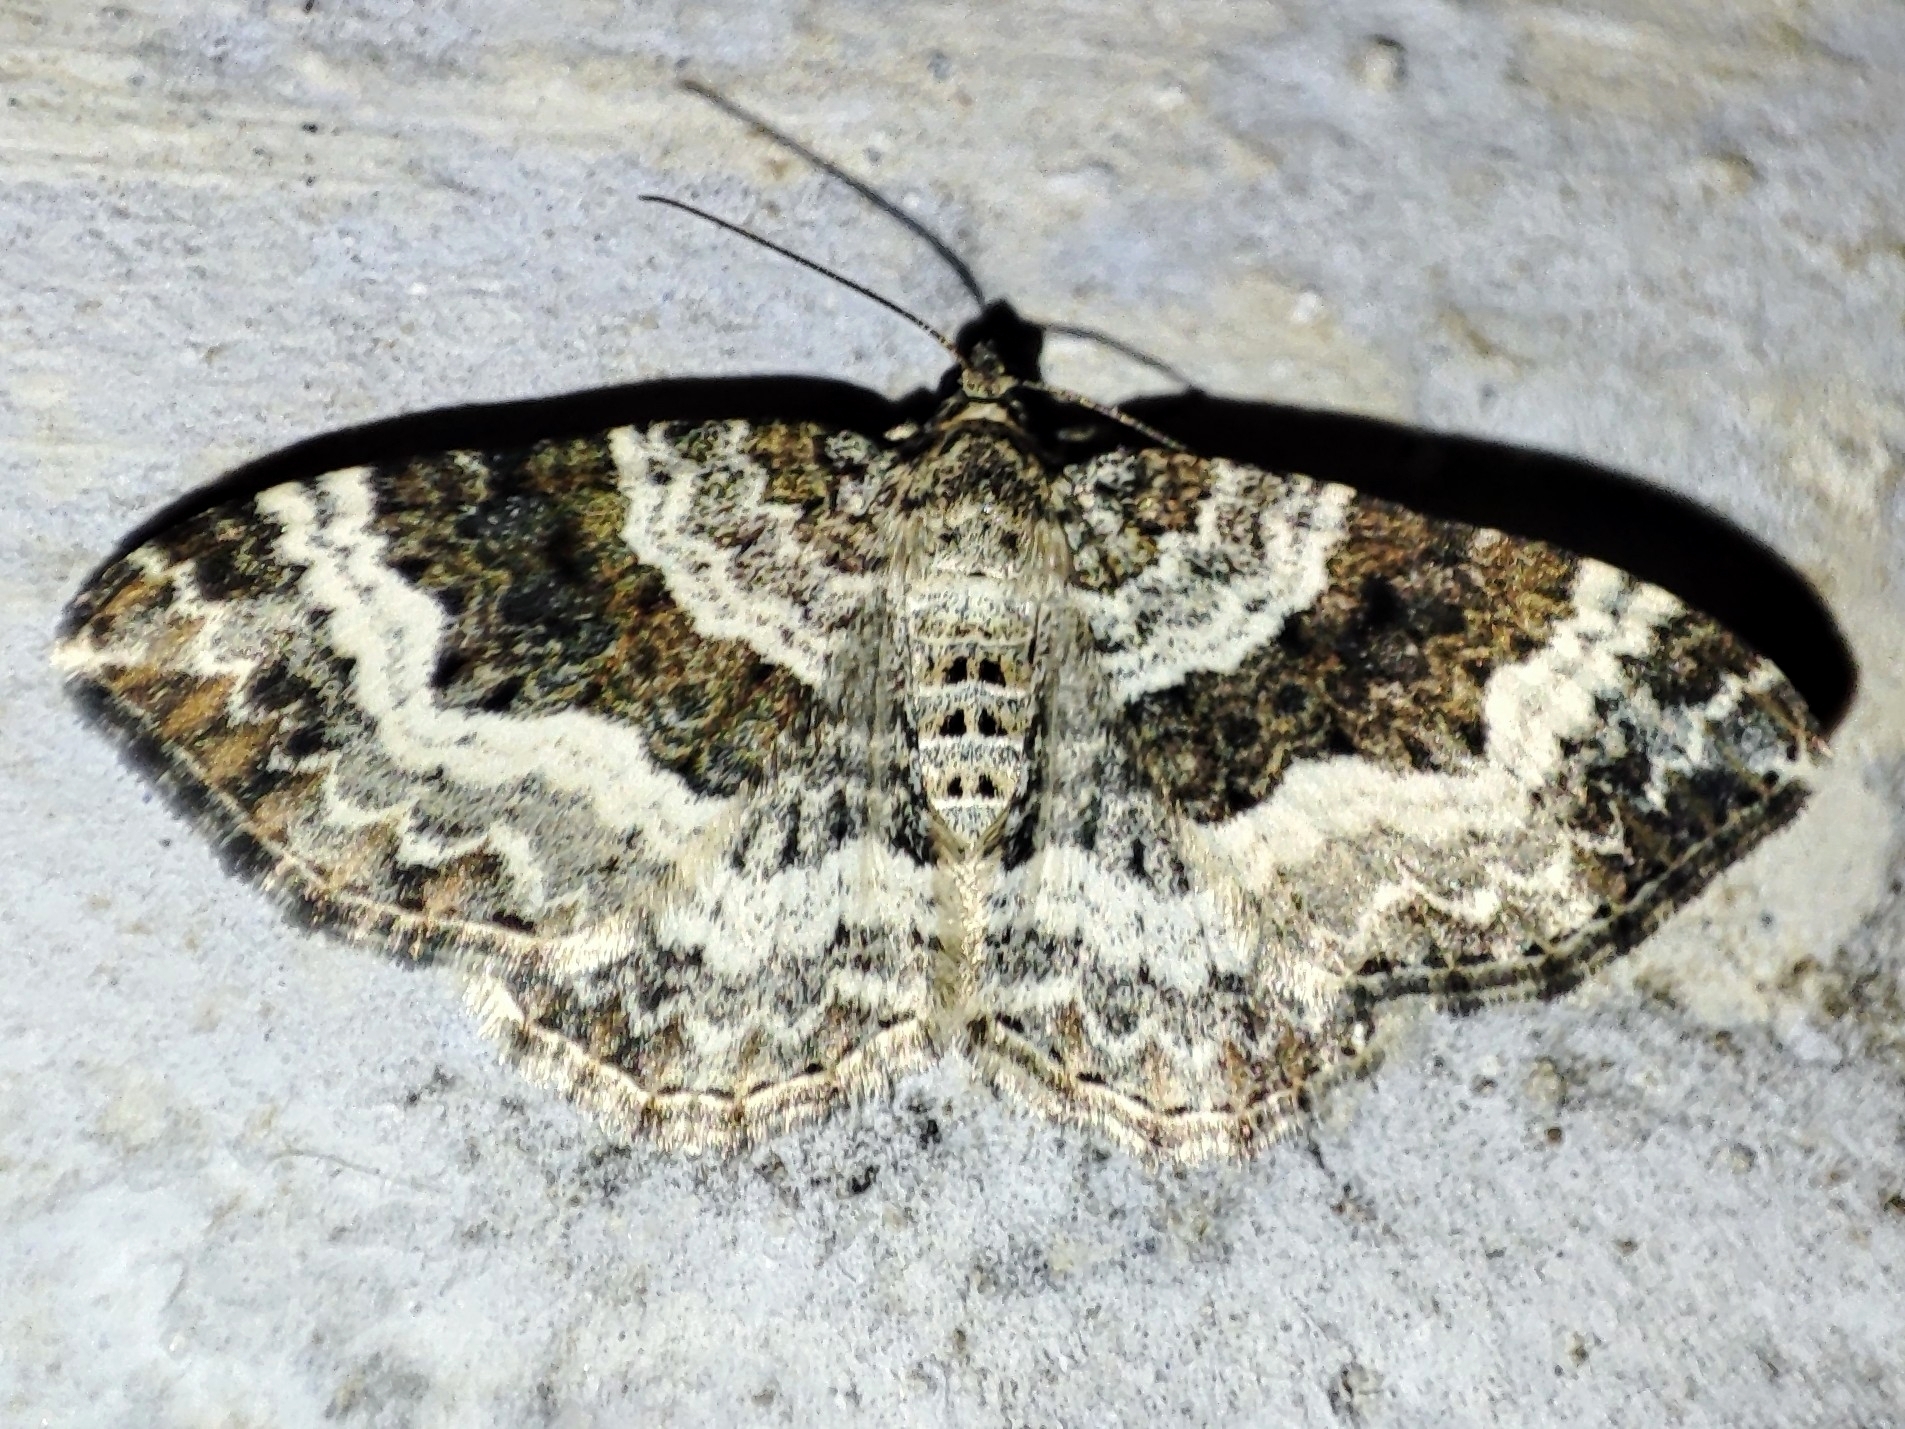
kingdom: Animalia
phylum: Arthropoda
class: Insecta
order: Lepidoptera
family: Geometridae
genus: Epirrhoe
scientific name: Epirrhoe alternata
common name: Common carpet
